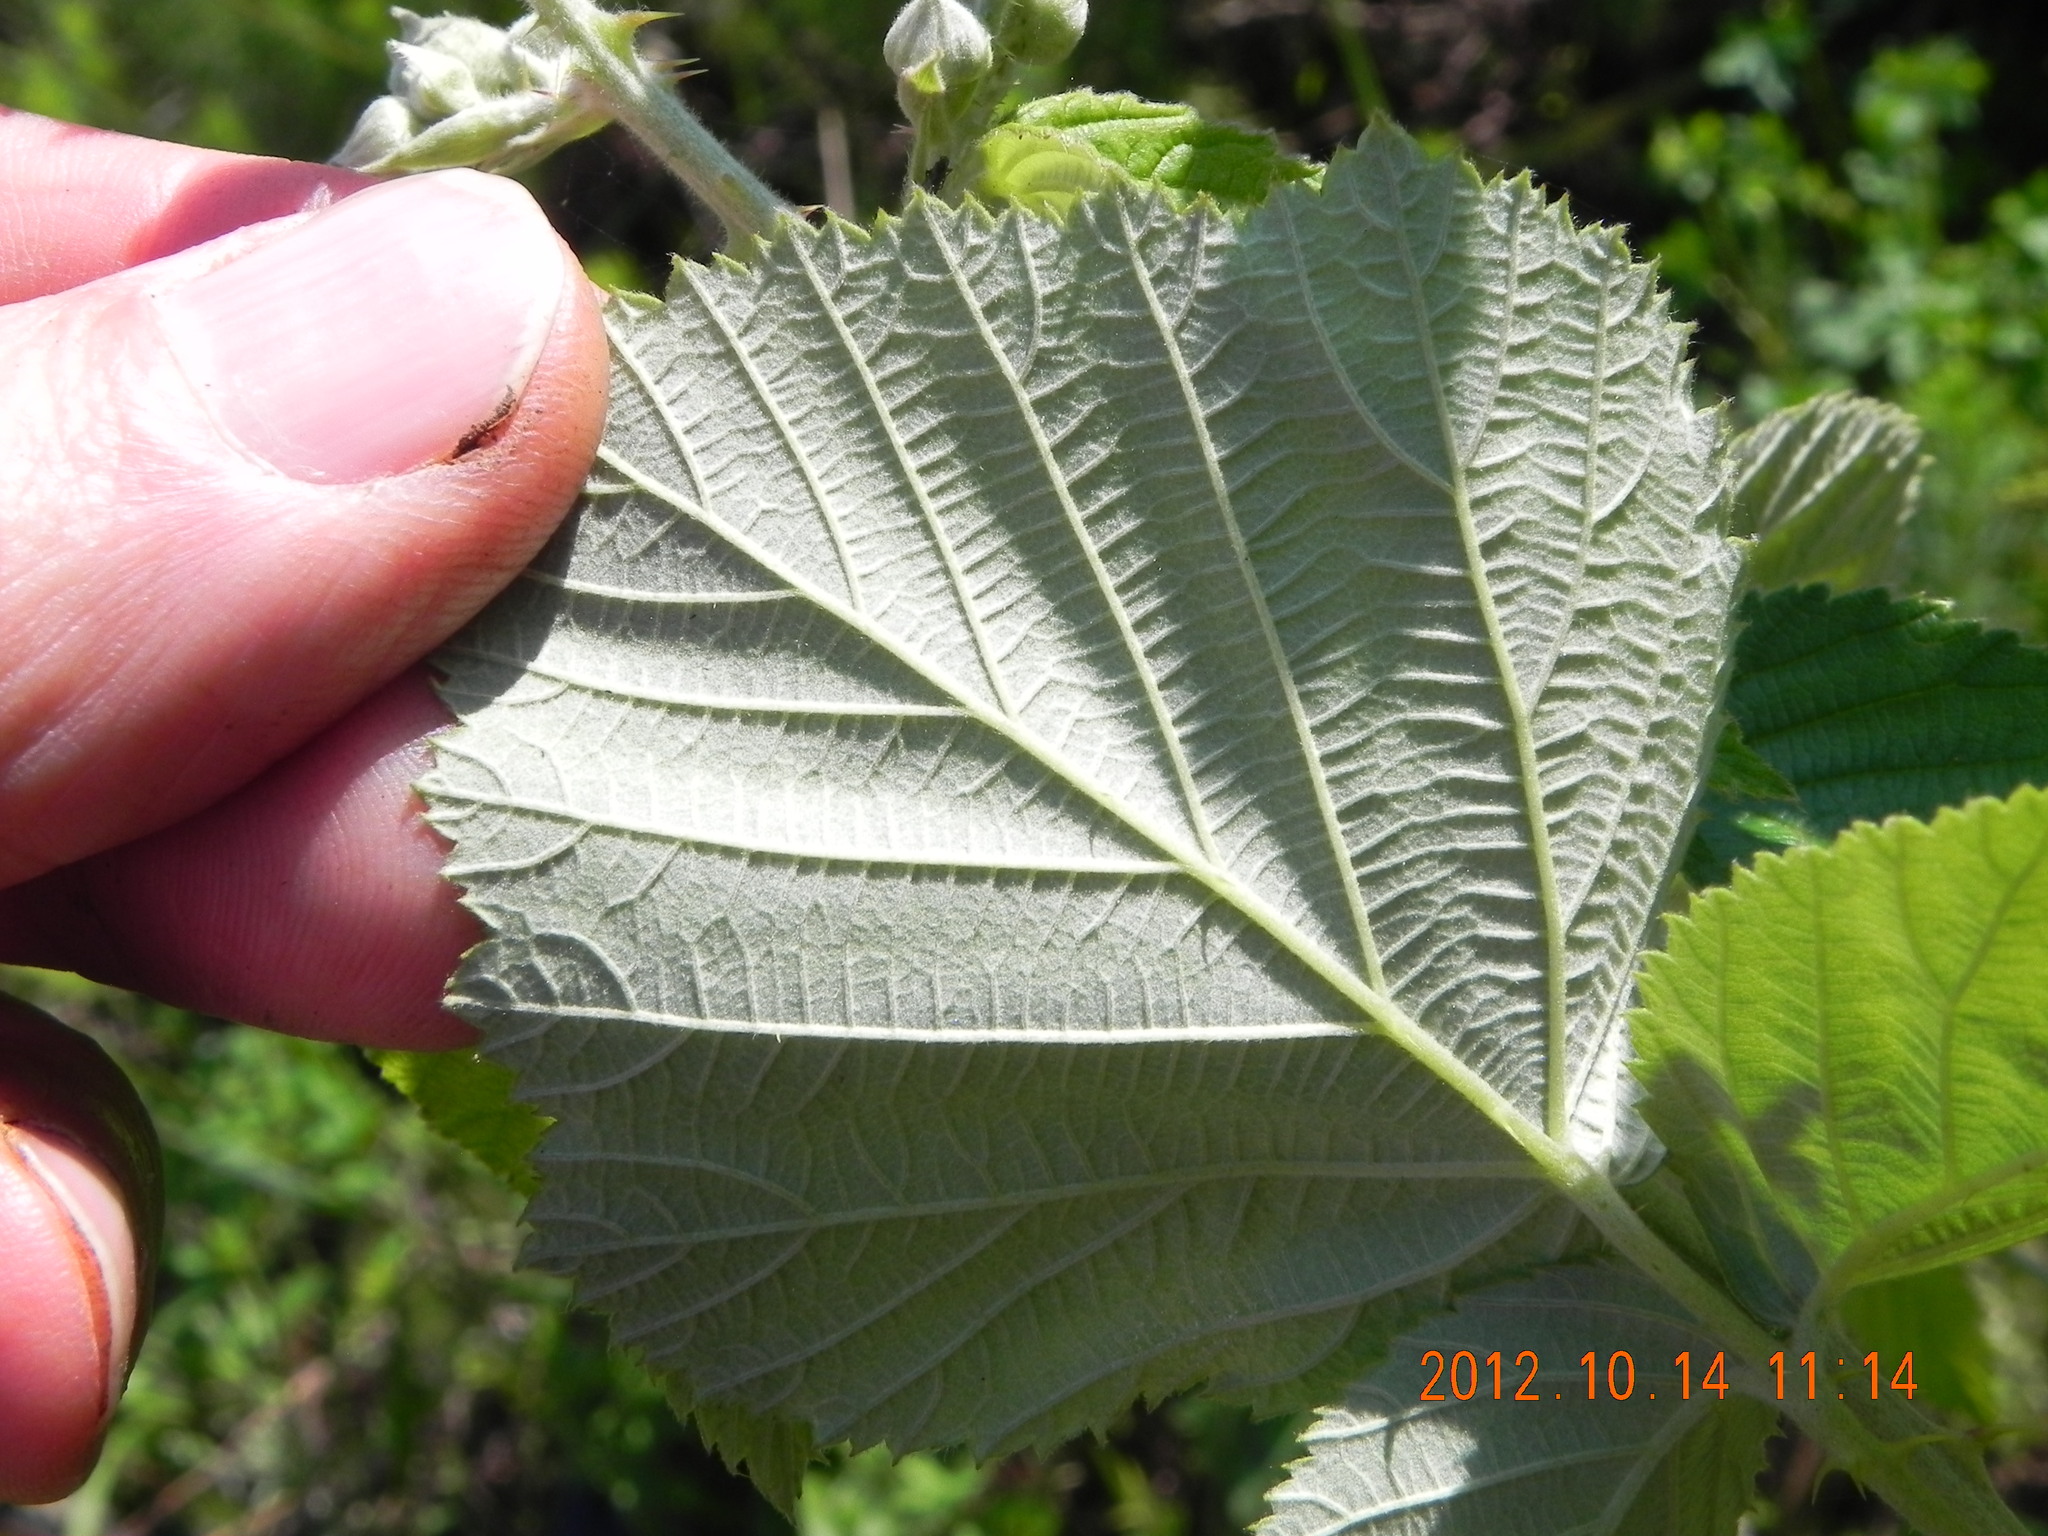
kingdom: Plantae
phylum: Tracheophyta
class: Magnoliopsida
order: Rosales
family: Rosaceae
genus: Rubus
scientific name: Rubus rigidus
